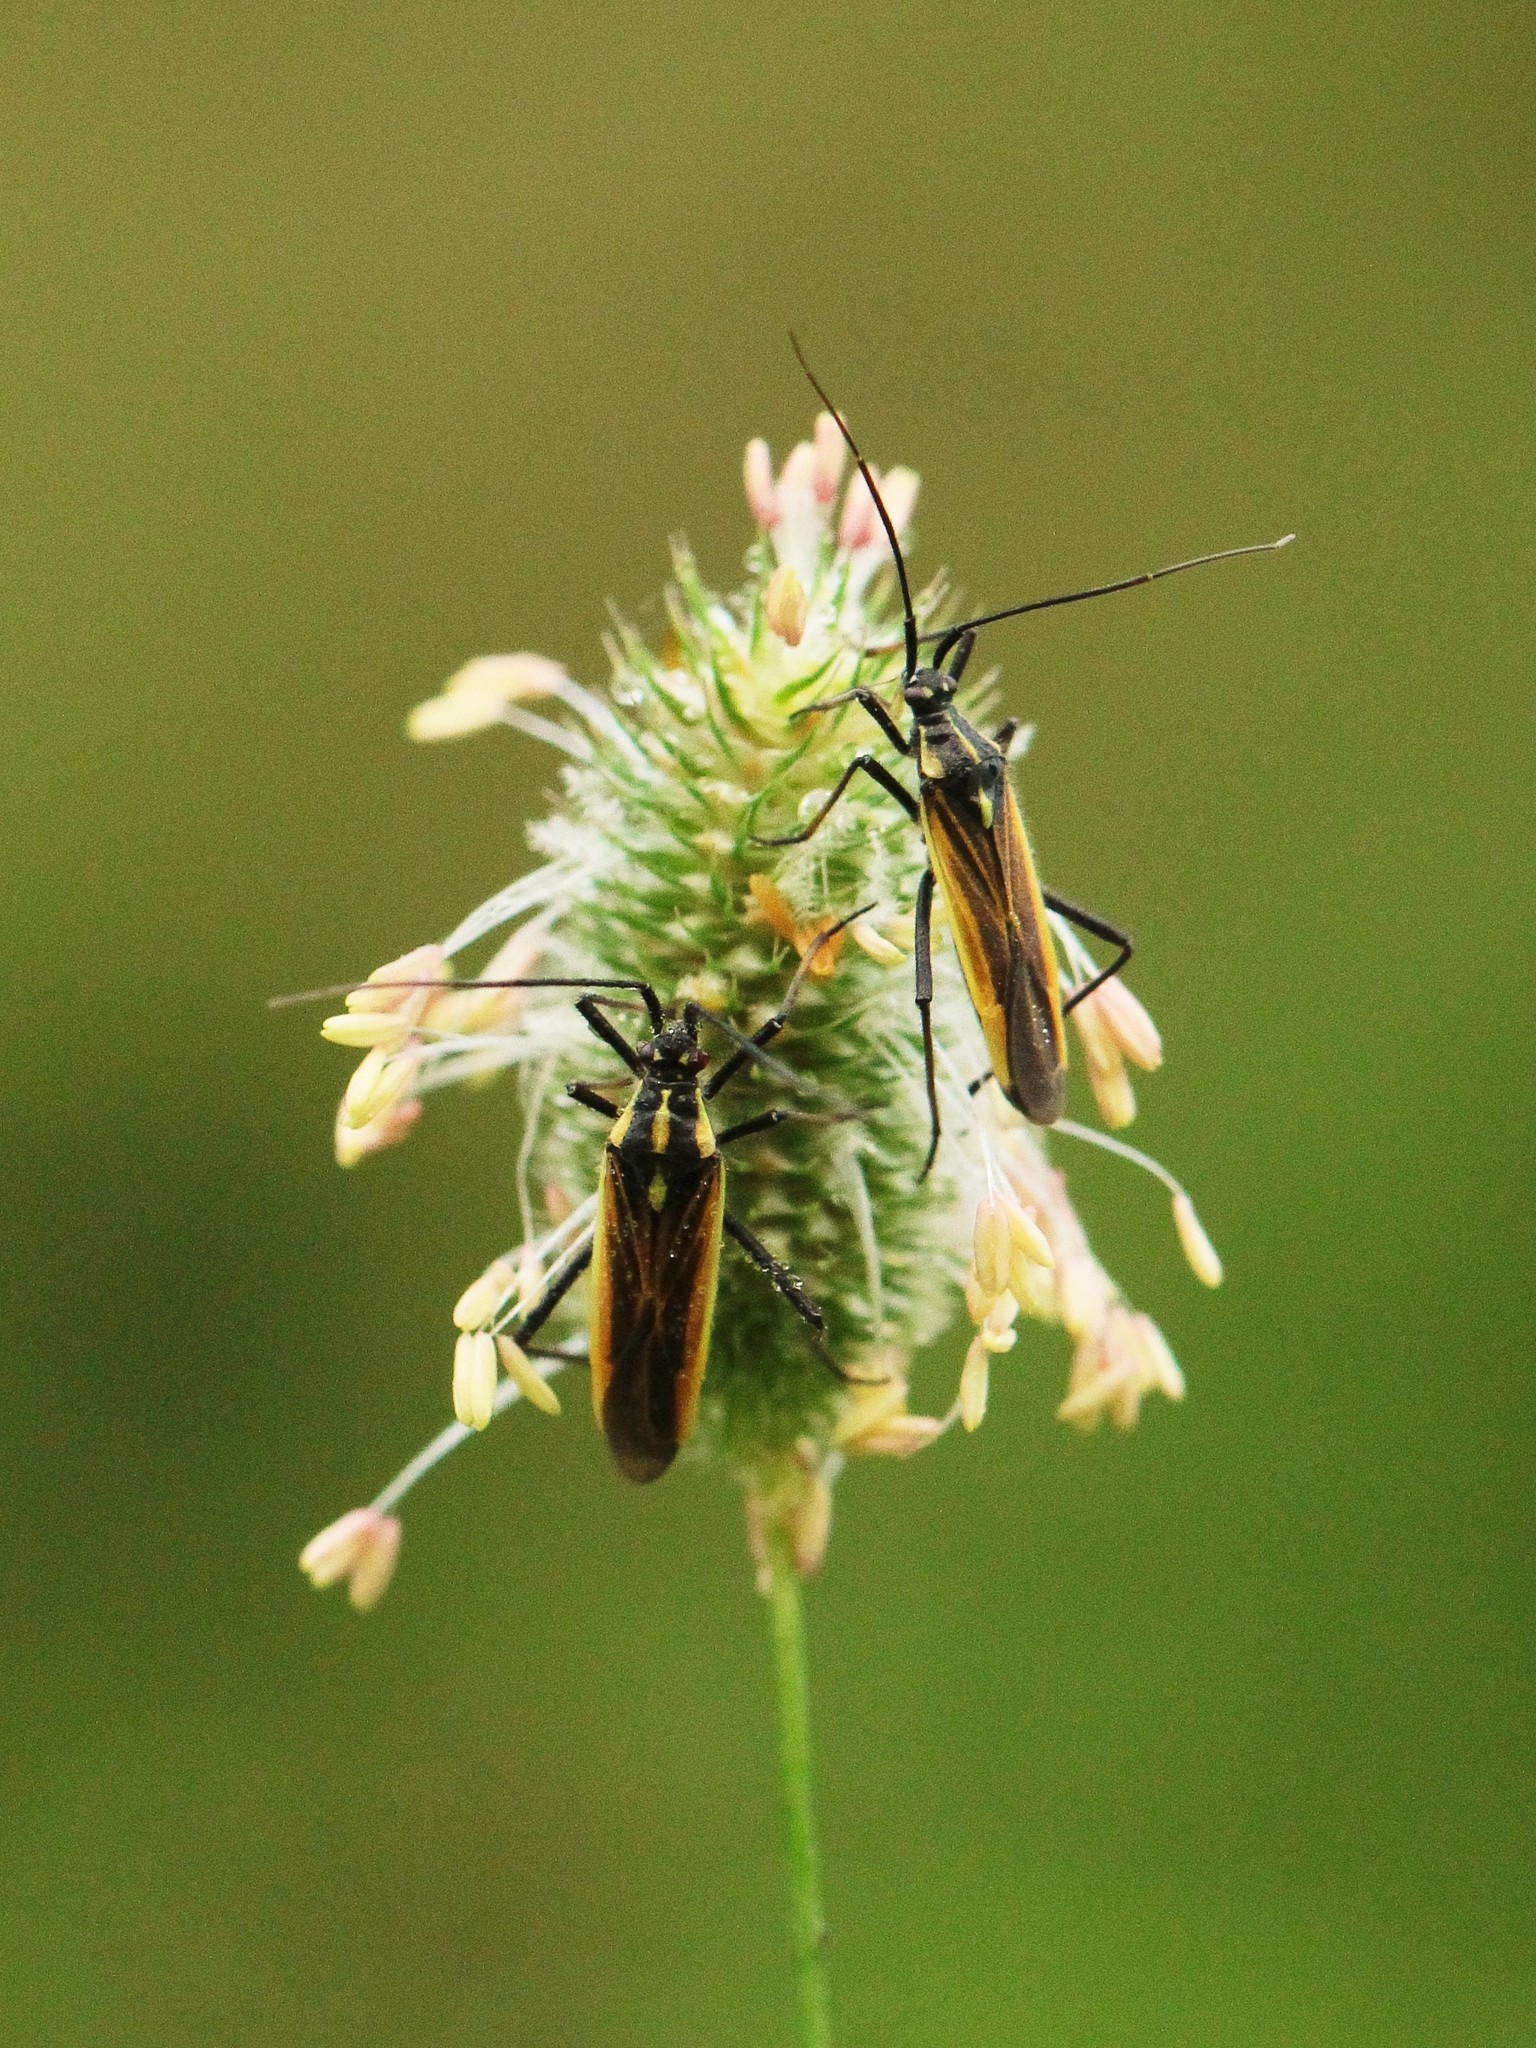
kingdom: Animalia
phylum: Arthropoda
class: Insecta
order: Hemiptera
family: Miridae
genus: Leptopterna
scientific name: Leptopterna dolabrata
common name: Meadow plant bug
